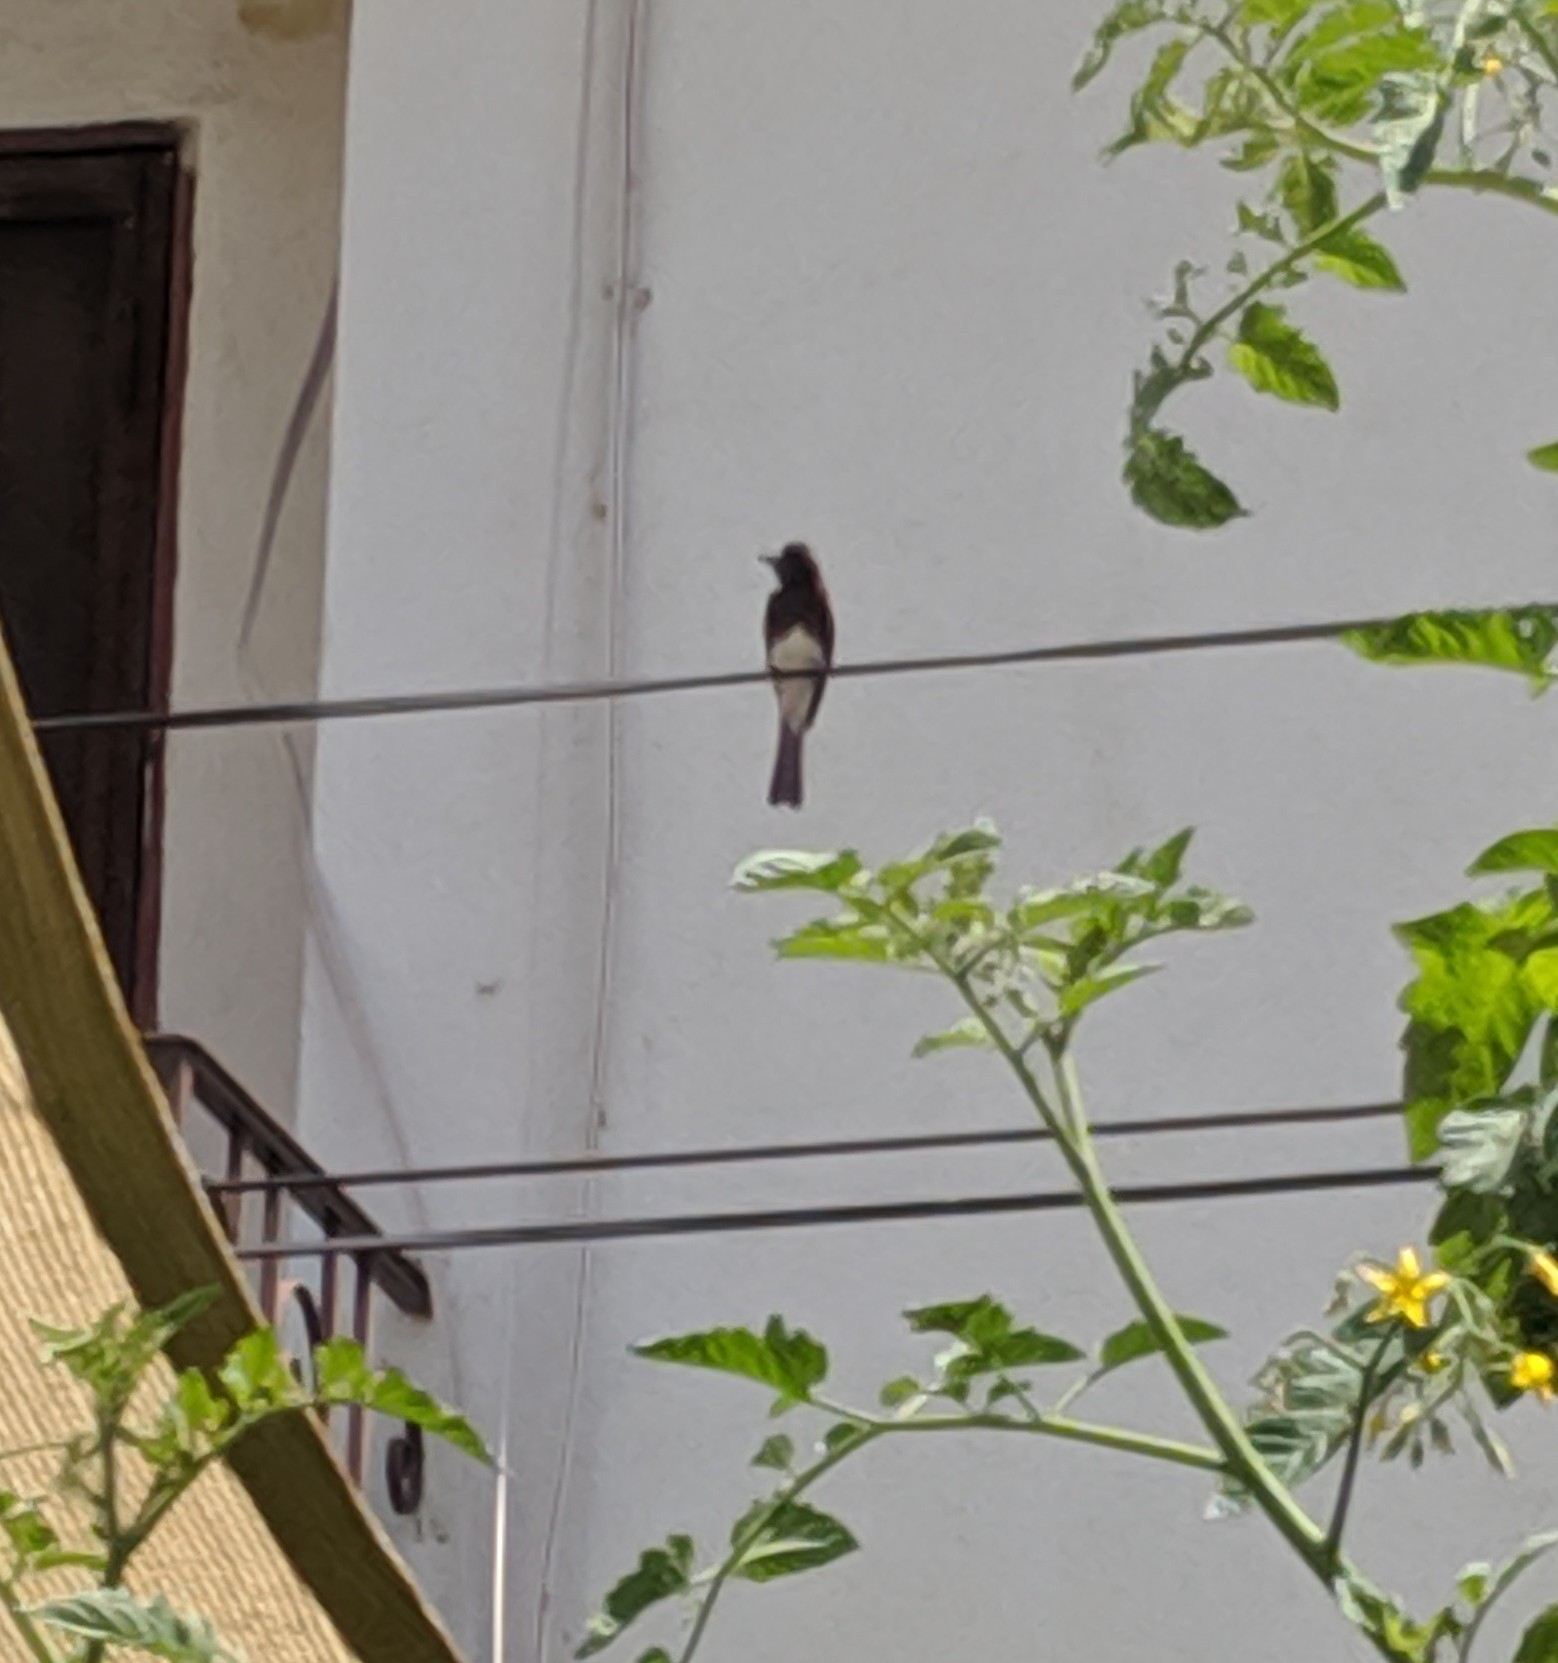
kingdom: Animalia
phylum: Chordata
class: Aves
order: Passeriformes
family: Tyrannidae
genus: Sayornis
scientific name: Sayornis nigricans
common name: Black phoebe
